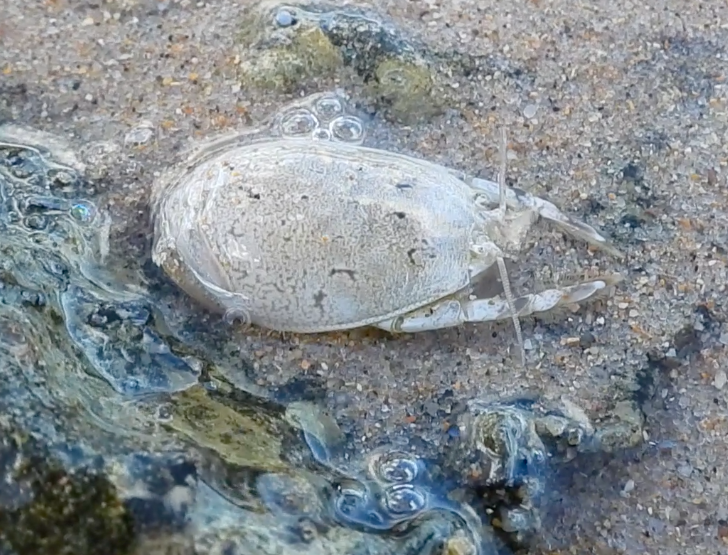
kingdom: Animalia
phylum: Arthropoda
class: Malacostraca
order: Decapoda
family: Hippidae
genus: Hippa
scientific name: Hippa testudinaria
